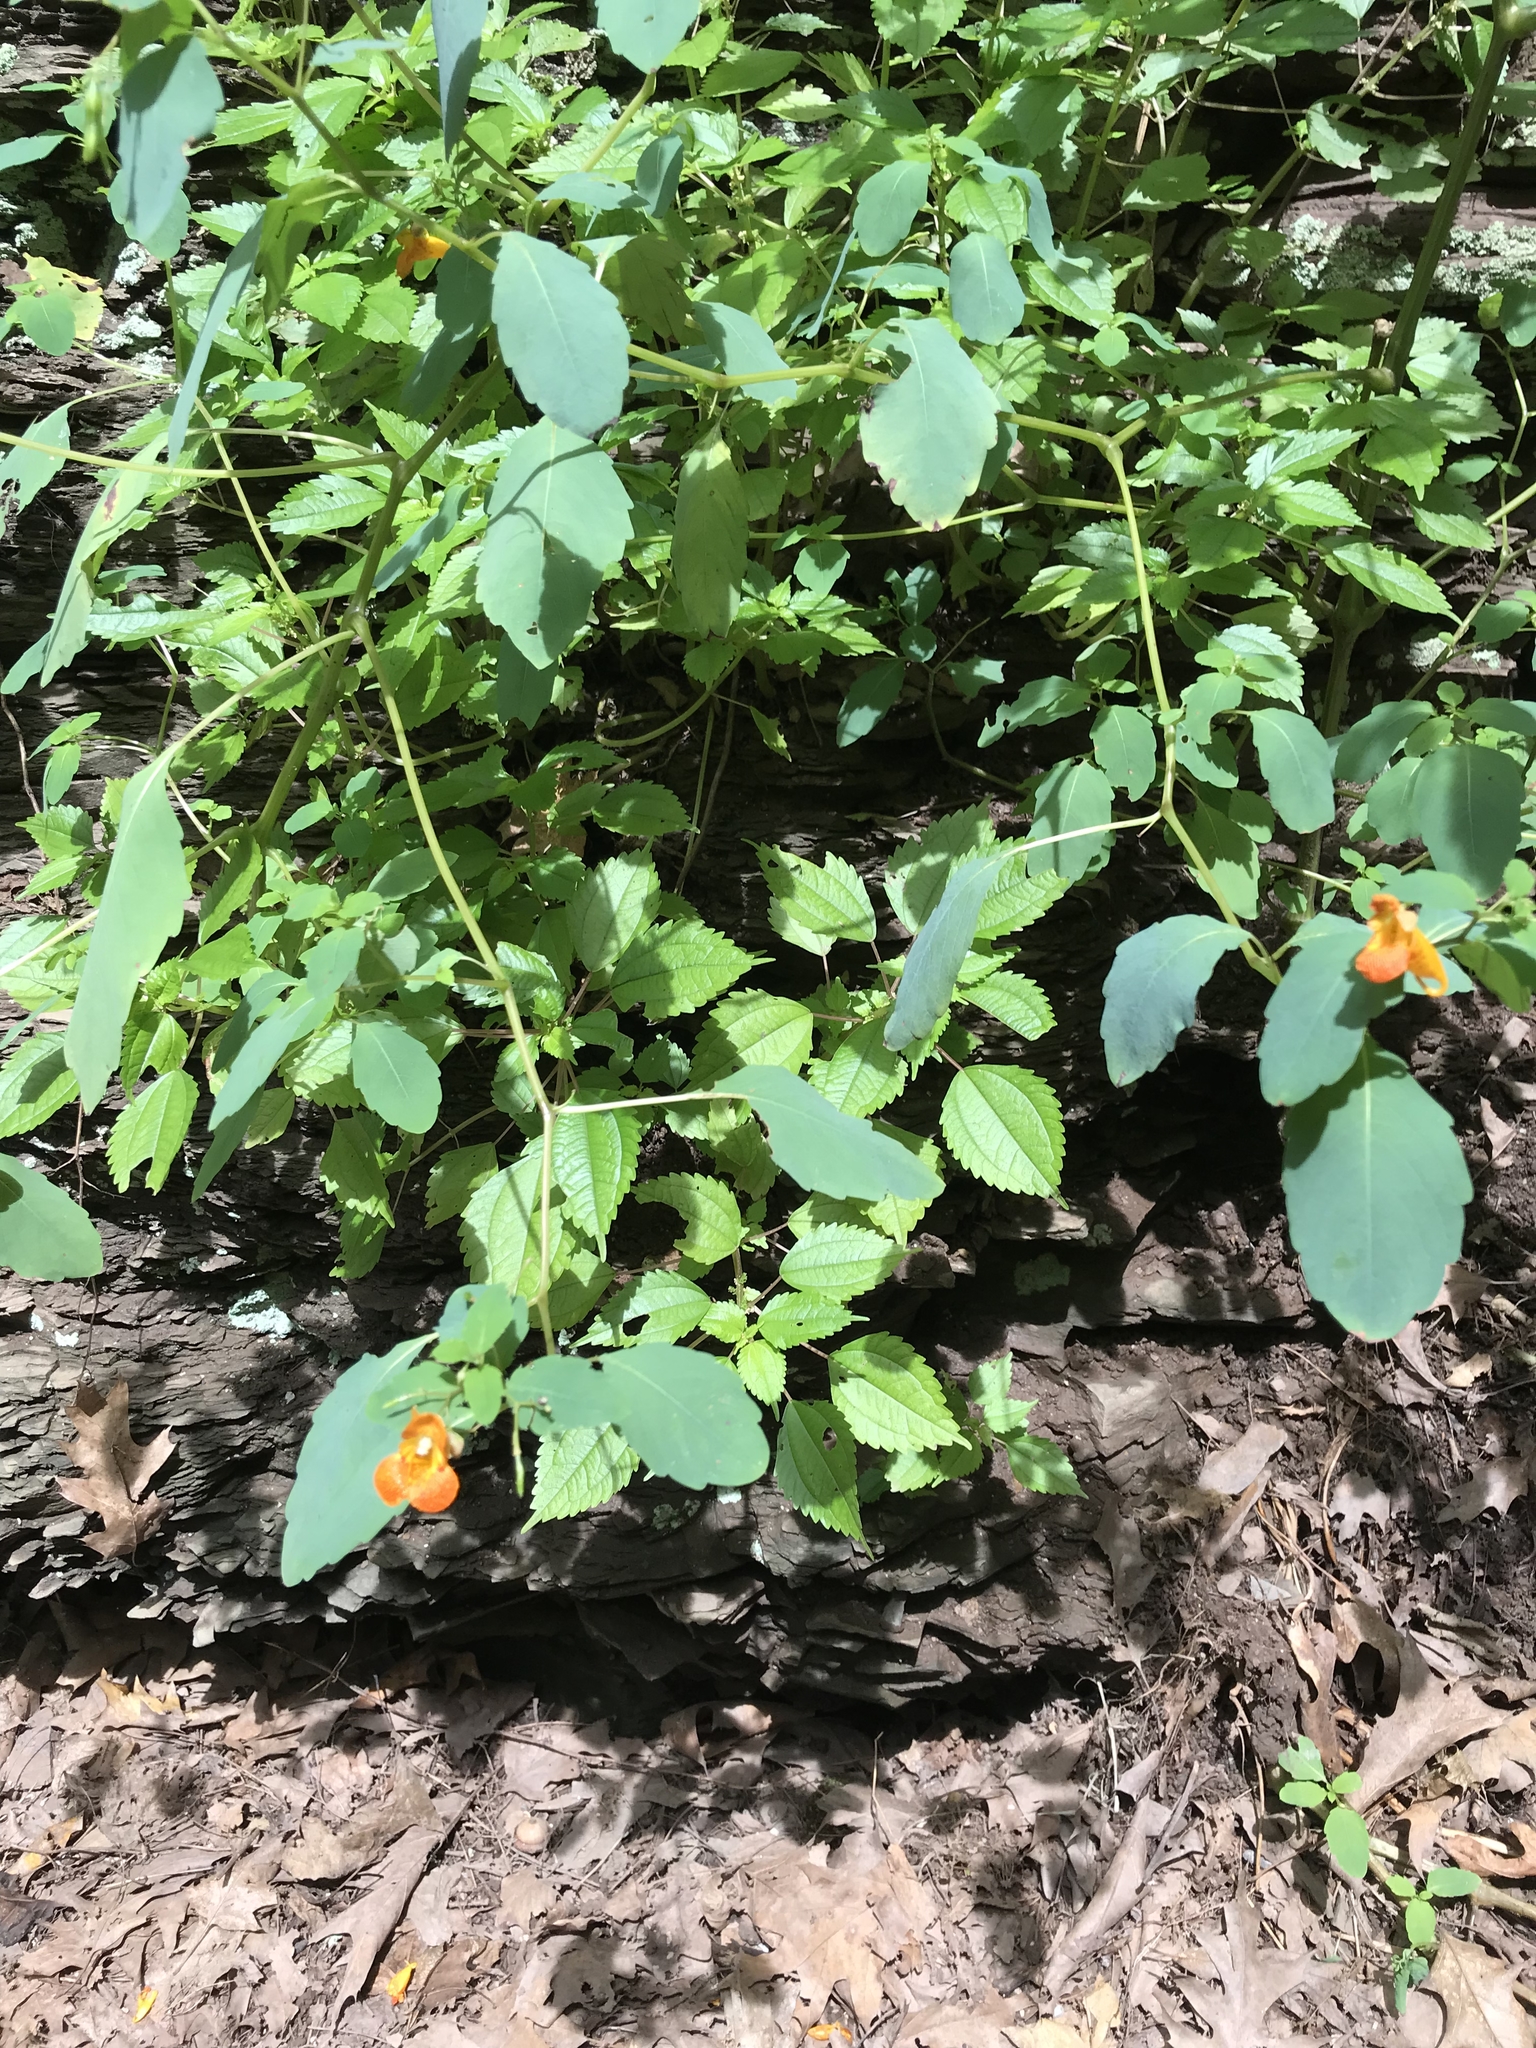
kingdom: Plantae
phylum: Tracheophyta
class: Magnoliopsida
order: Ericales
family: Balsaminaceae
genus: Impatiens
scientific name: Impatiens capensis
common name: Orange balsam
